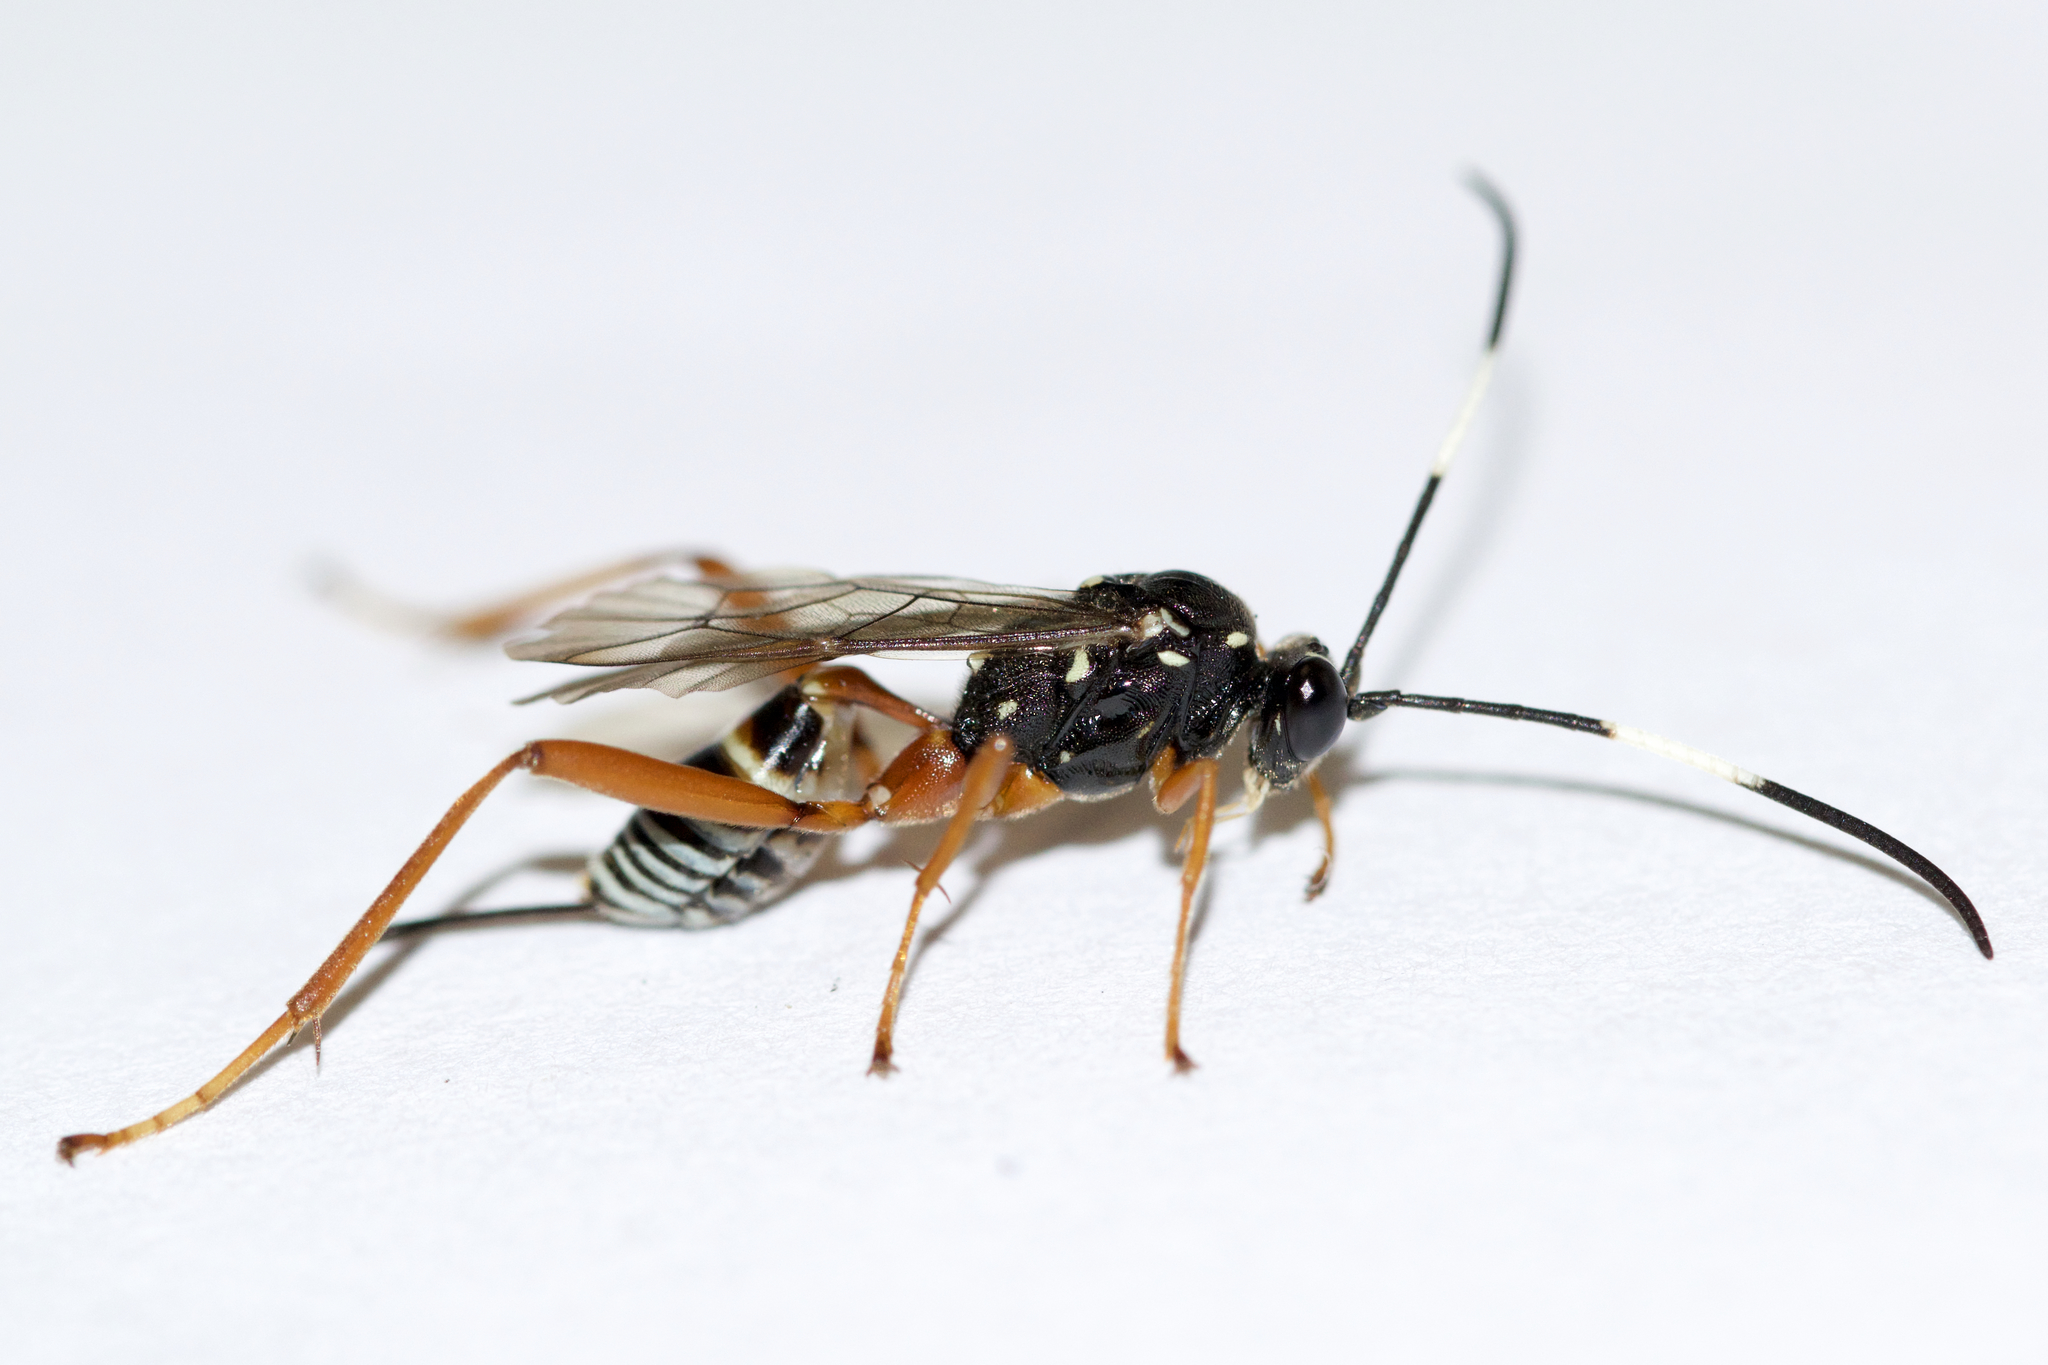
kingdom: Animalia
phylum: Arthropoda
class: Insecta
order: Hymenoptera
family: Ichneumonidae
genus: Baryceros
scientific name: Baryceros audax
